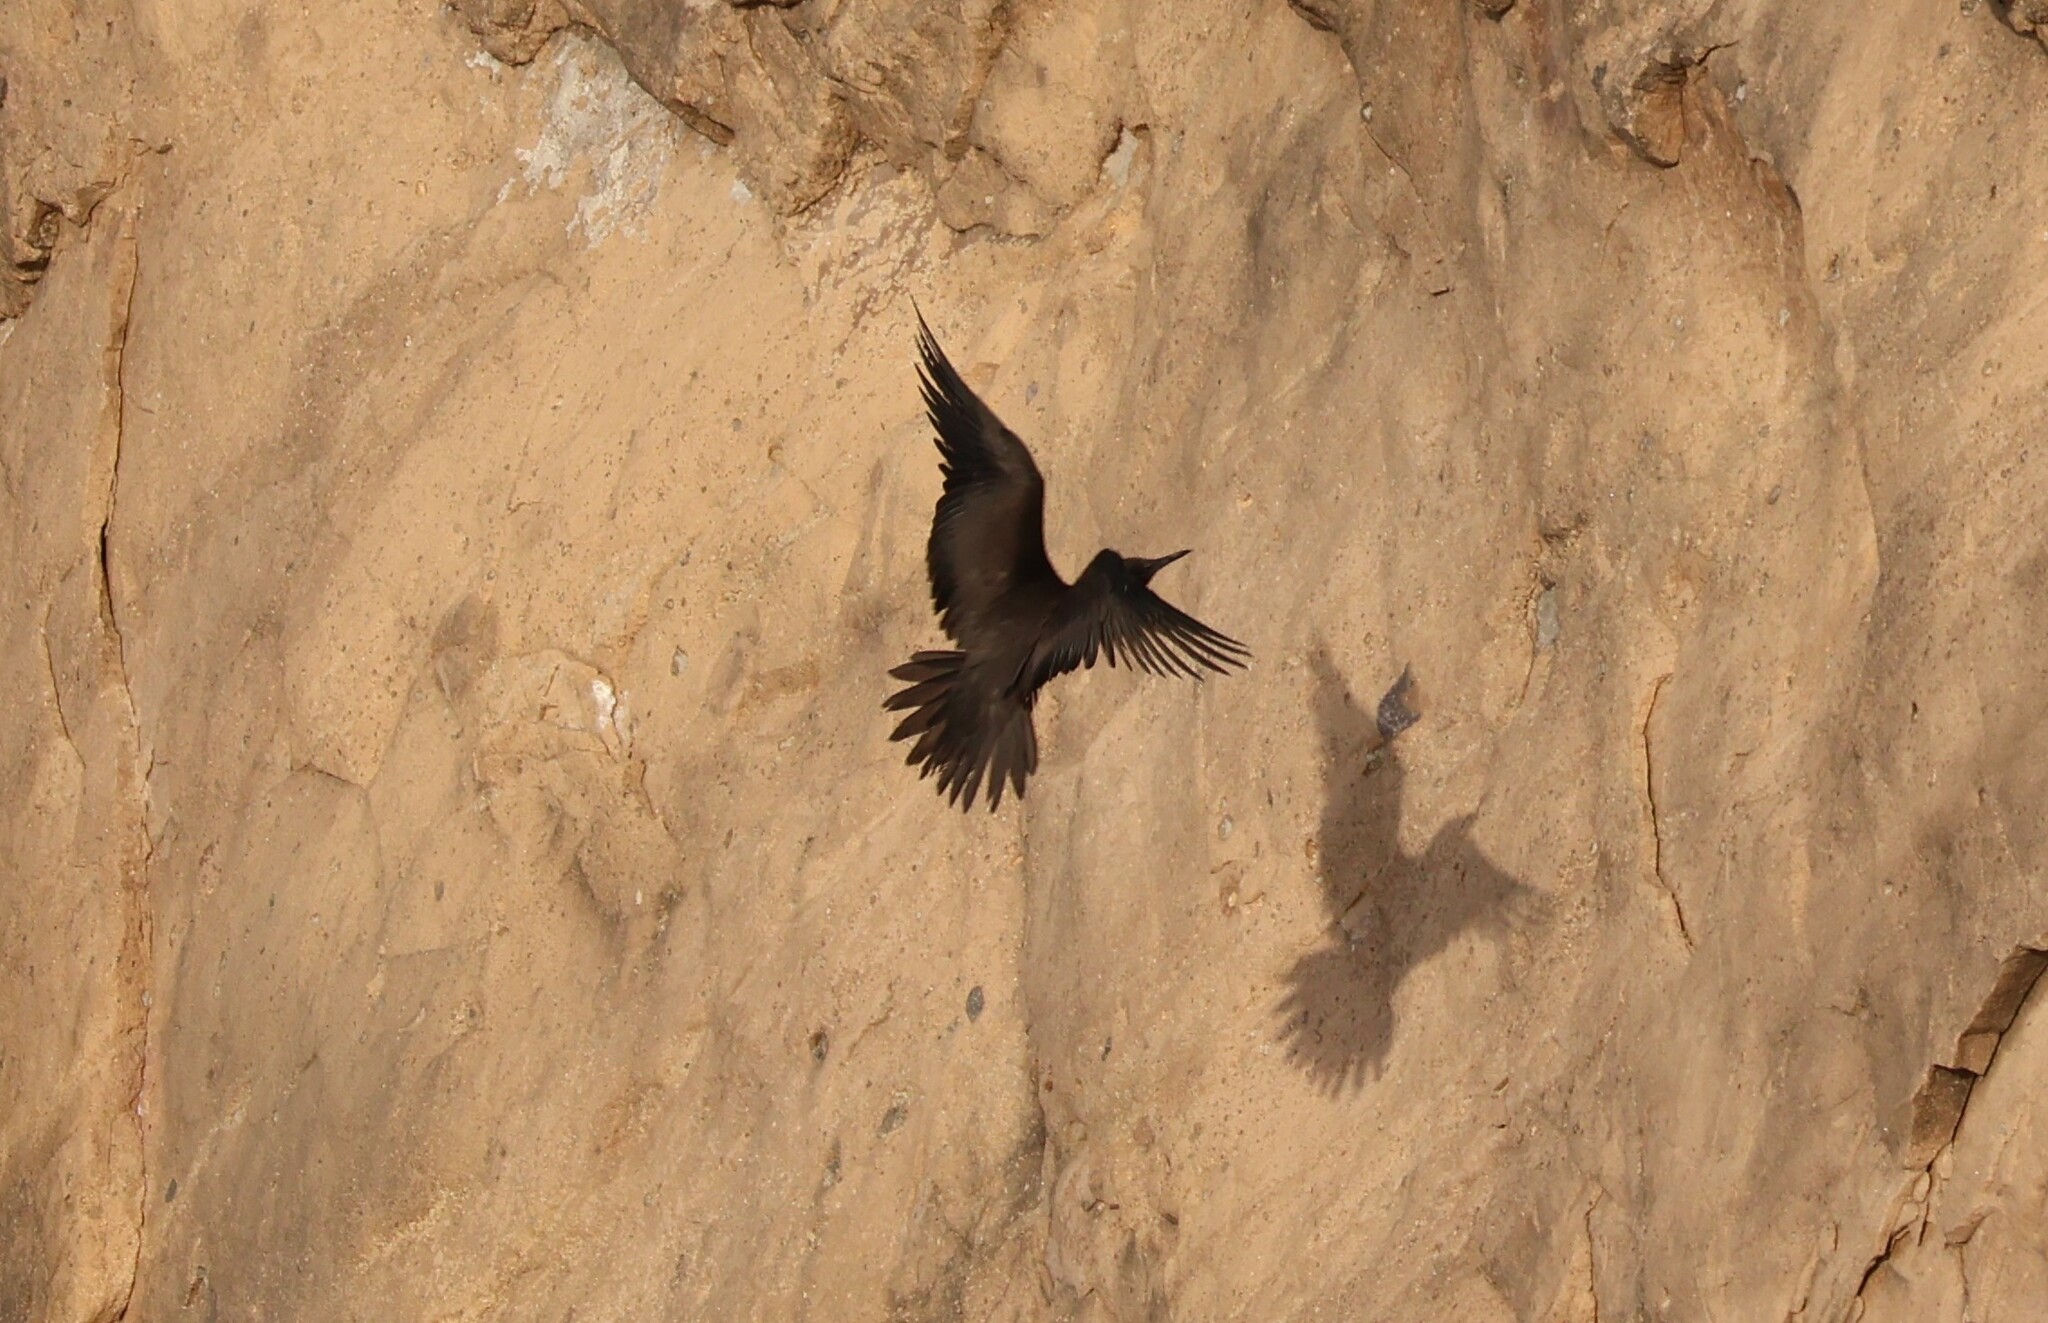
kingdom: Animalia
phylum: Chordata
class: Aves
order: Charadriiformes
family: Laridae
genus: Anous
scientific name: Anous stolidus
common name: Brown noddy
